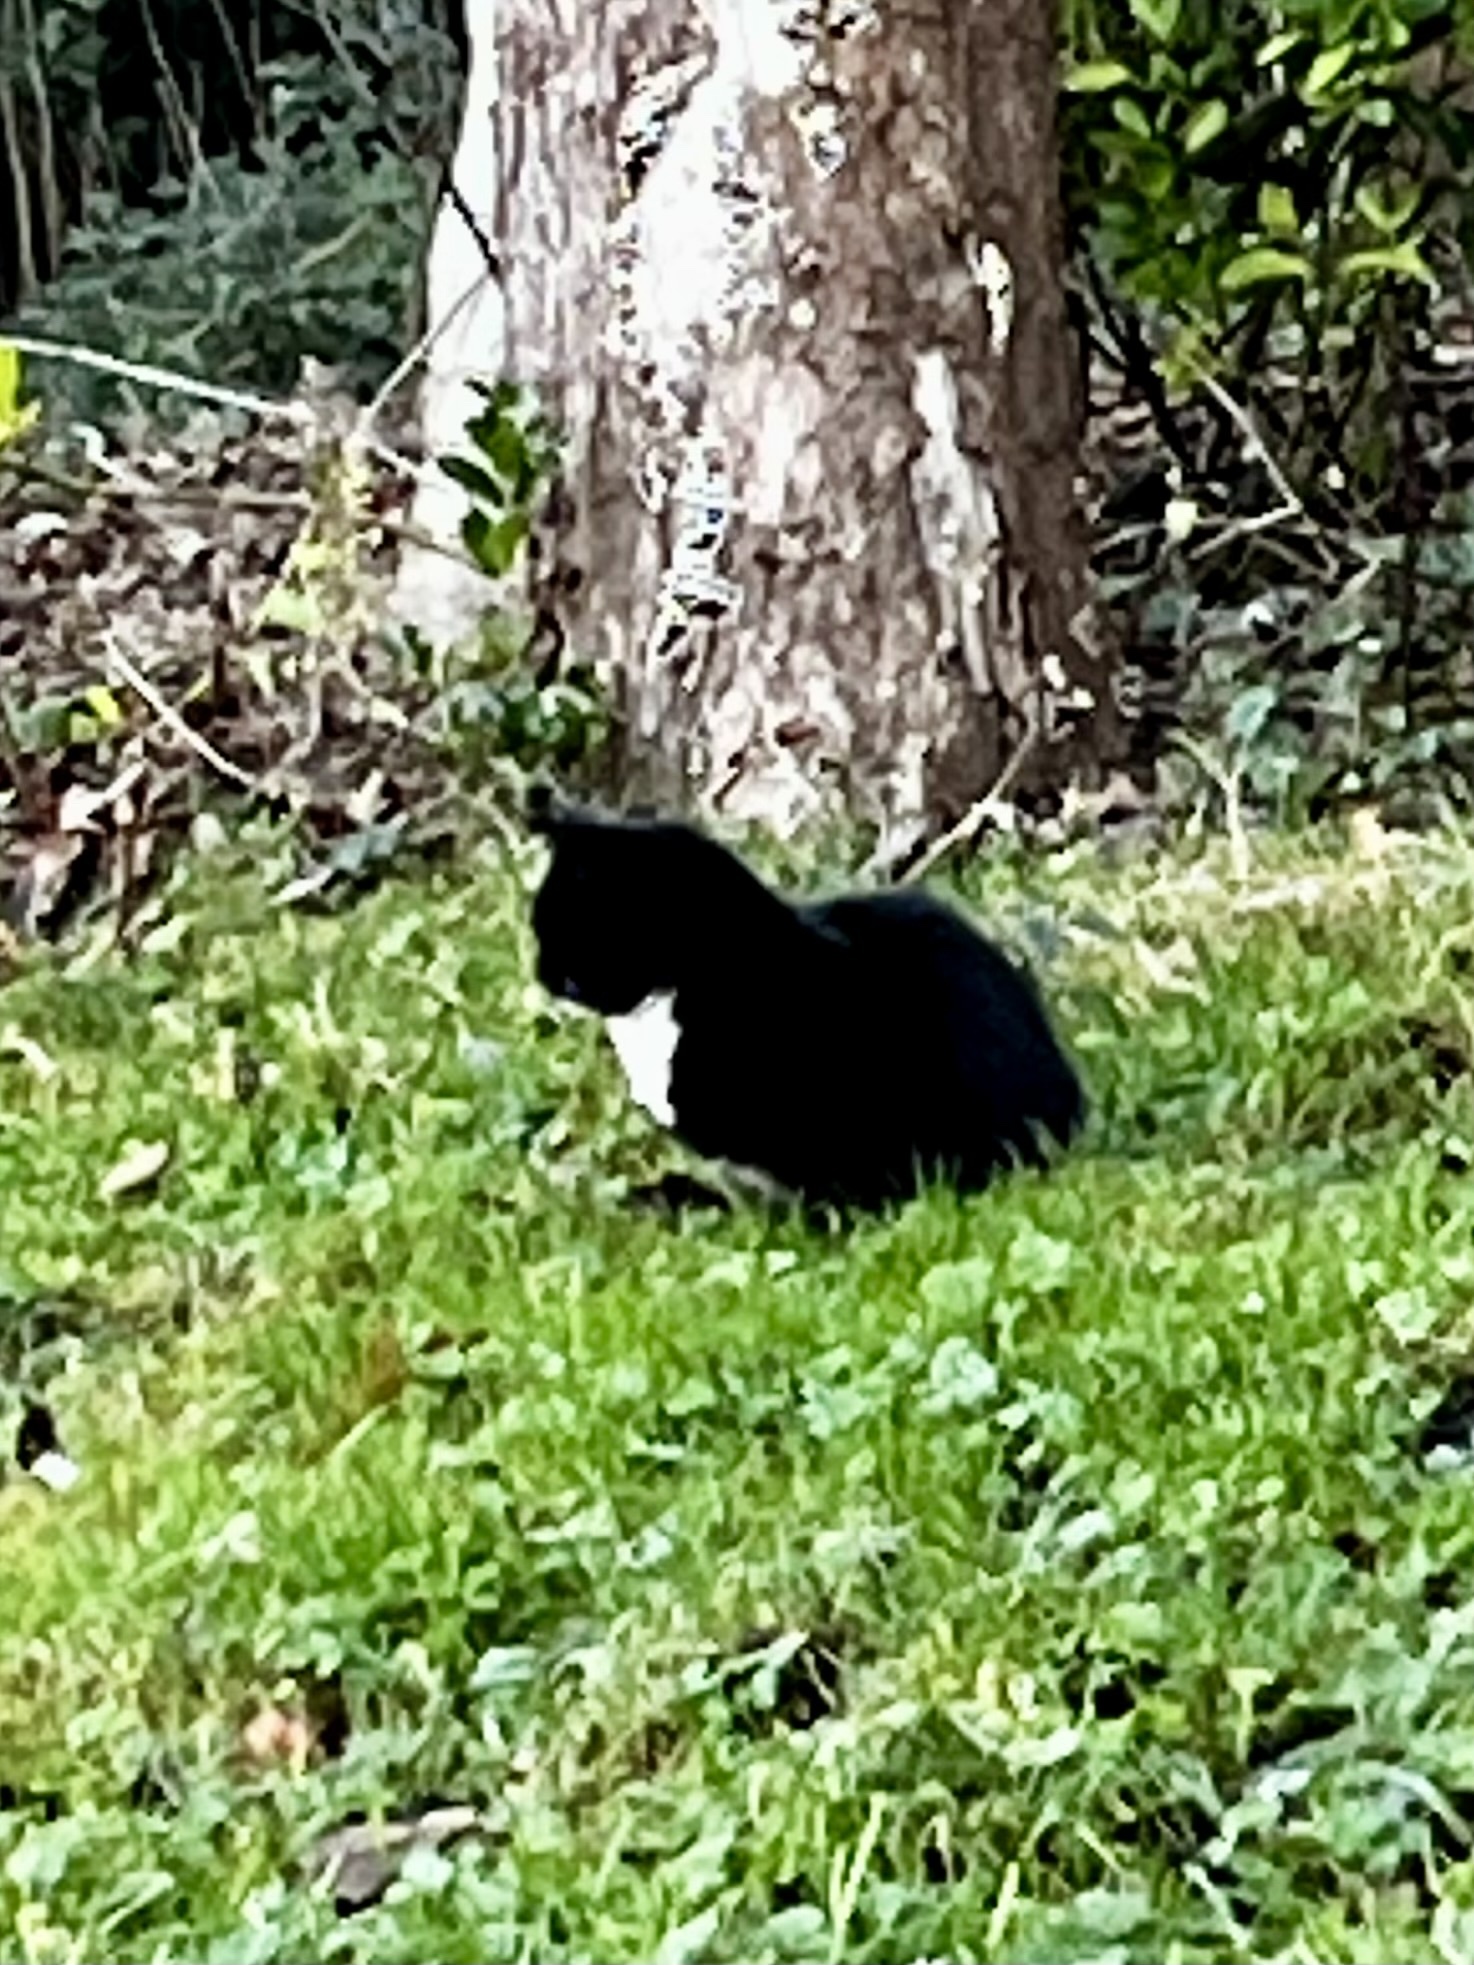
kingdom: Animalia
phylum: Chordata
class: Mammalia
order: Carnivora
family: Felidae
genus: Felis
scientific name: Felis catus
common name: Domestic cat
